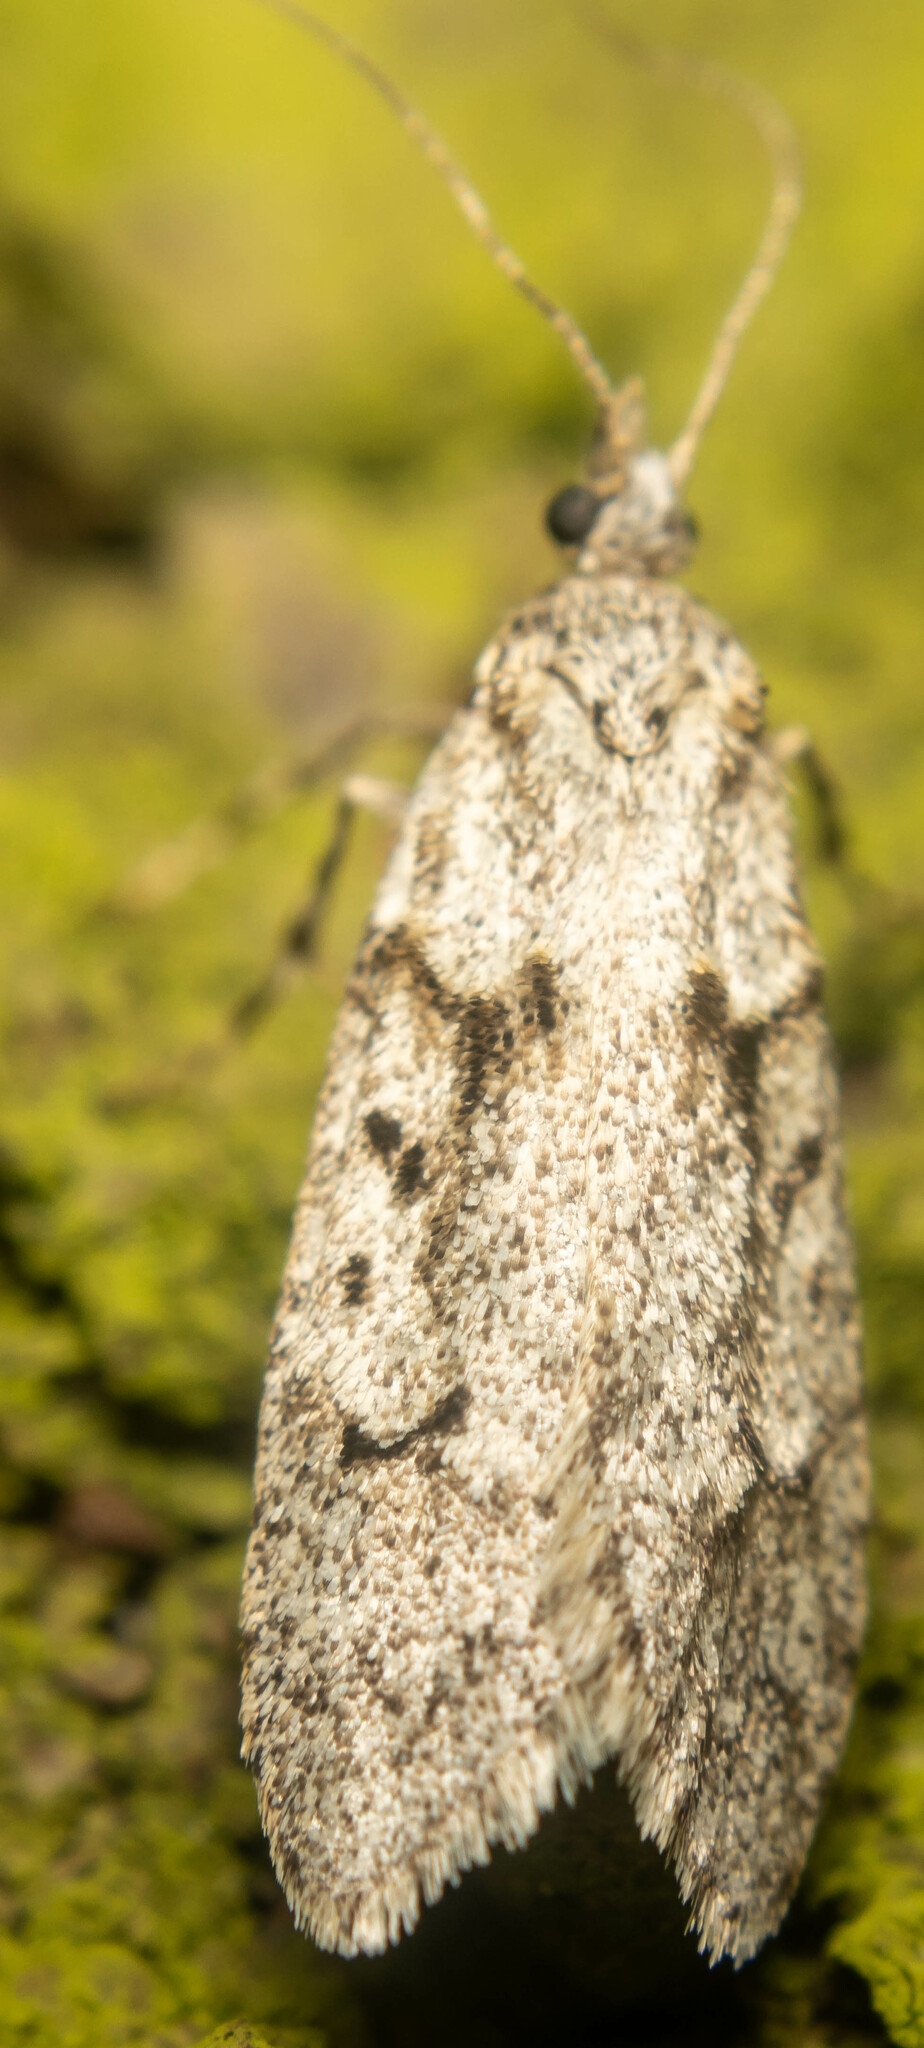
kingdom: Animalia
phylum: Arthropoda
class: Insecta
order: Lepidoptera
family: Lypusidae
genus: Diurnea
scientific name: Diurnea fagella
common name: March tubic
